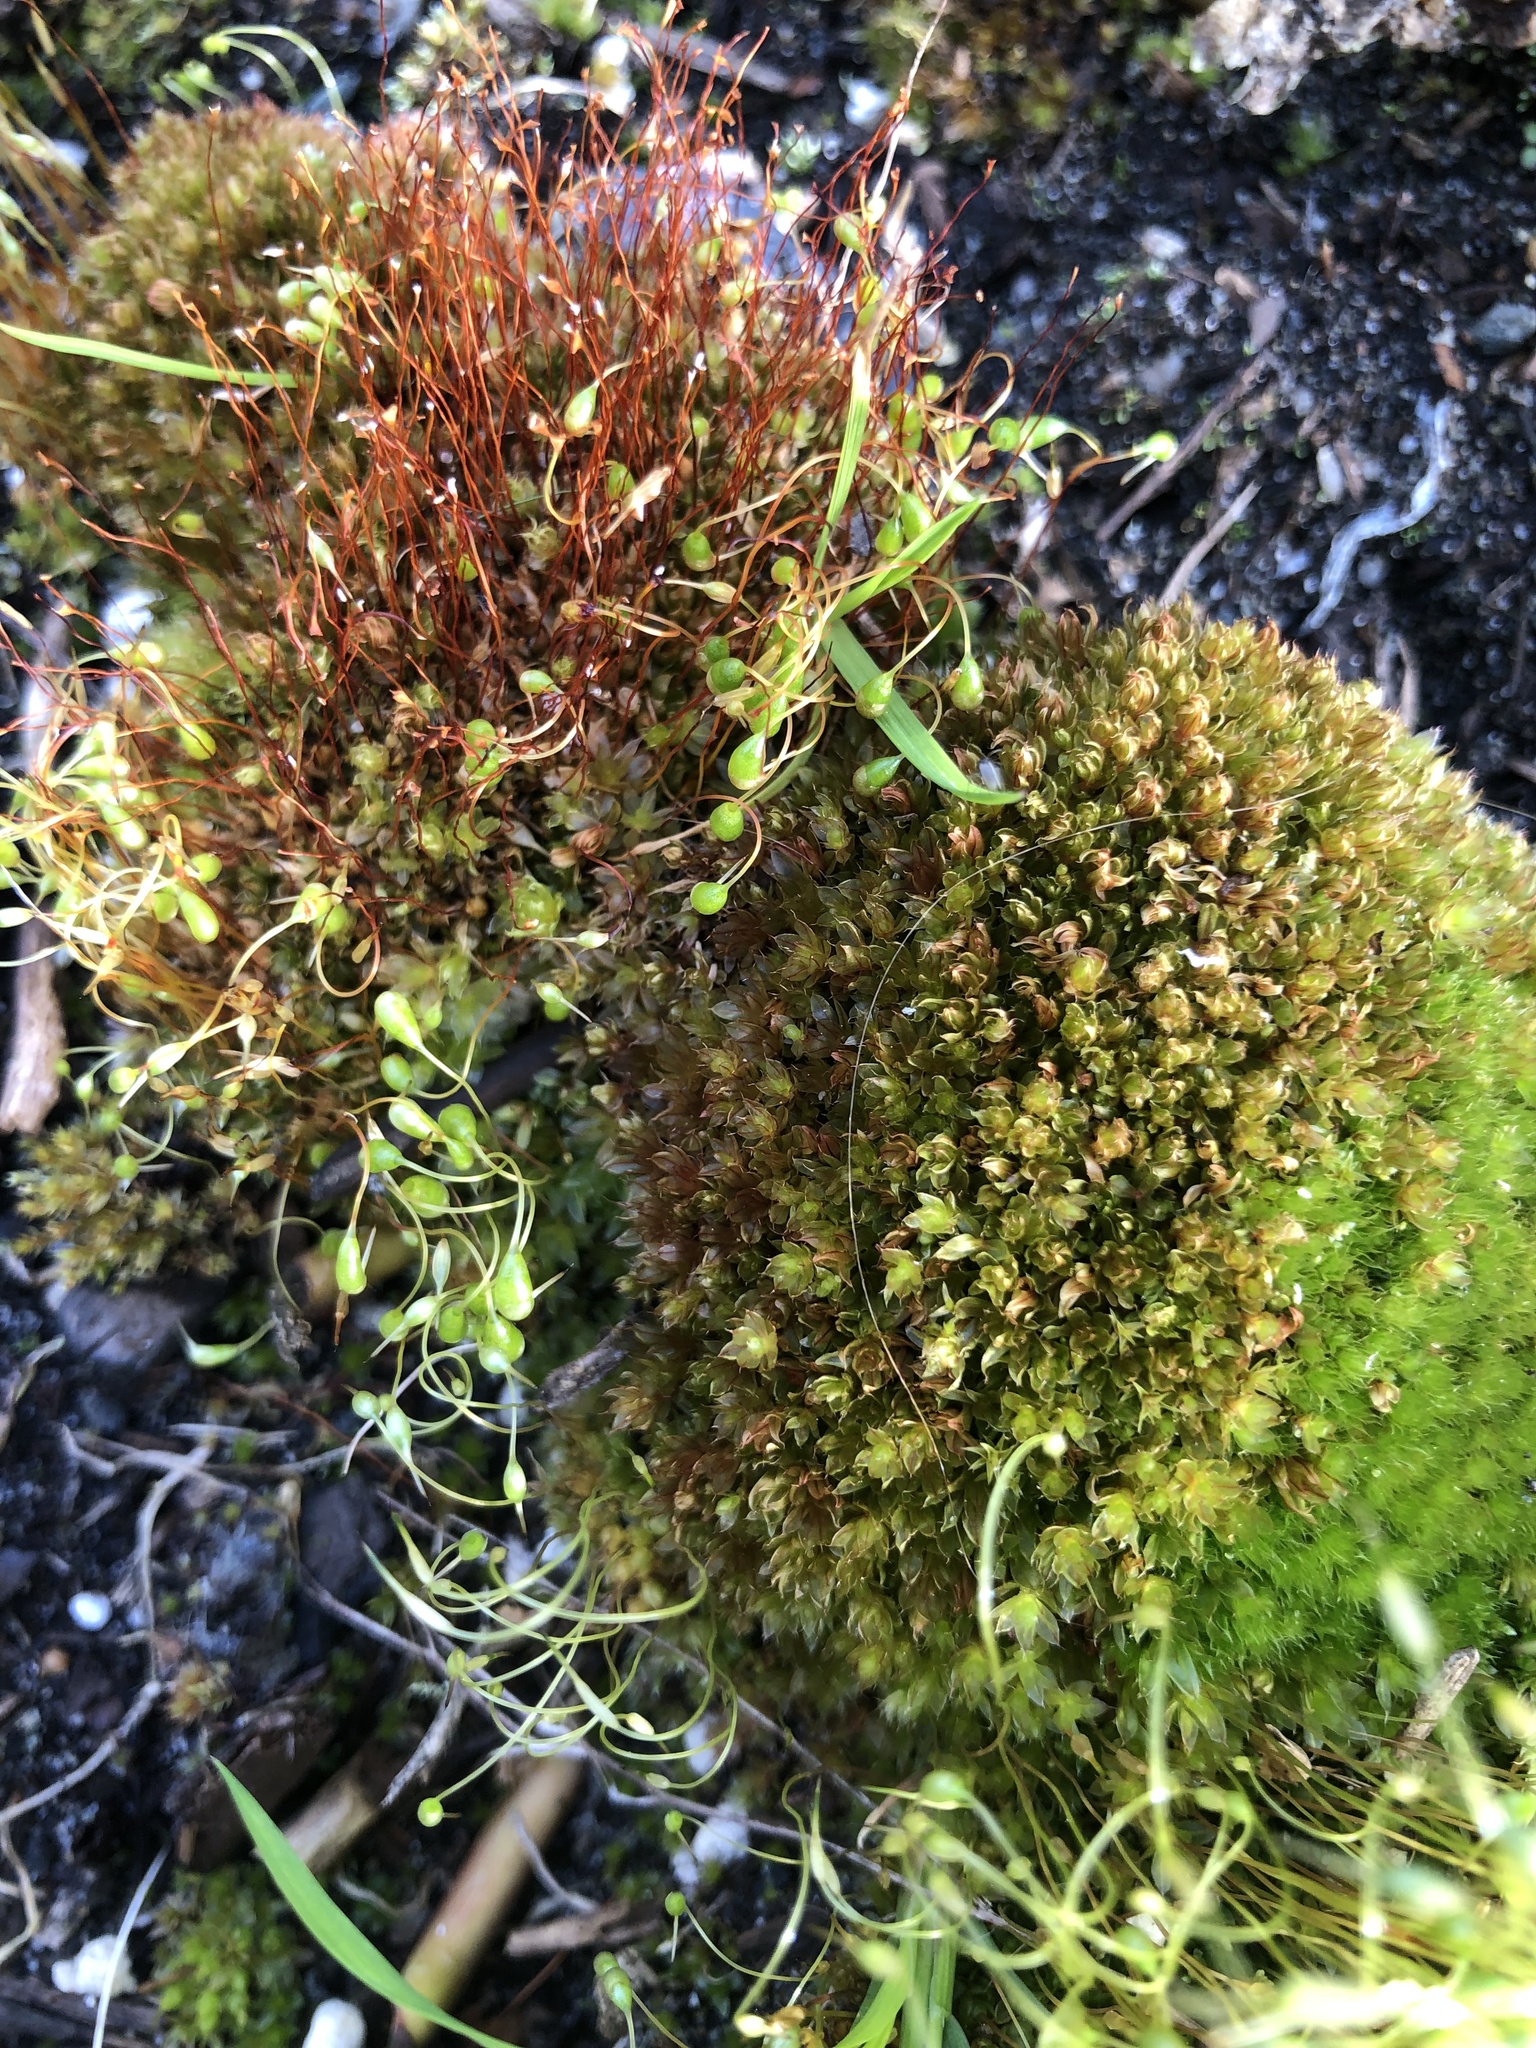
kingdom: Plantae
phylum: Bryophyta
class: Bryopsida
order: Funariales
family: Funariaceae
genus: Funaria
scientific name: Funaria hygrometrica
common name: Common cord moss
